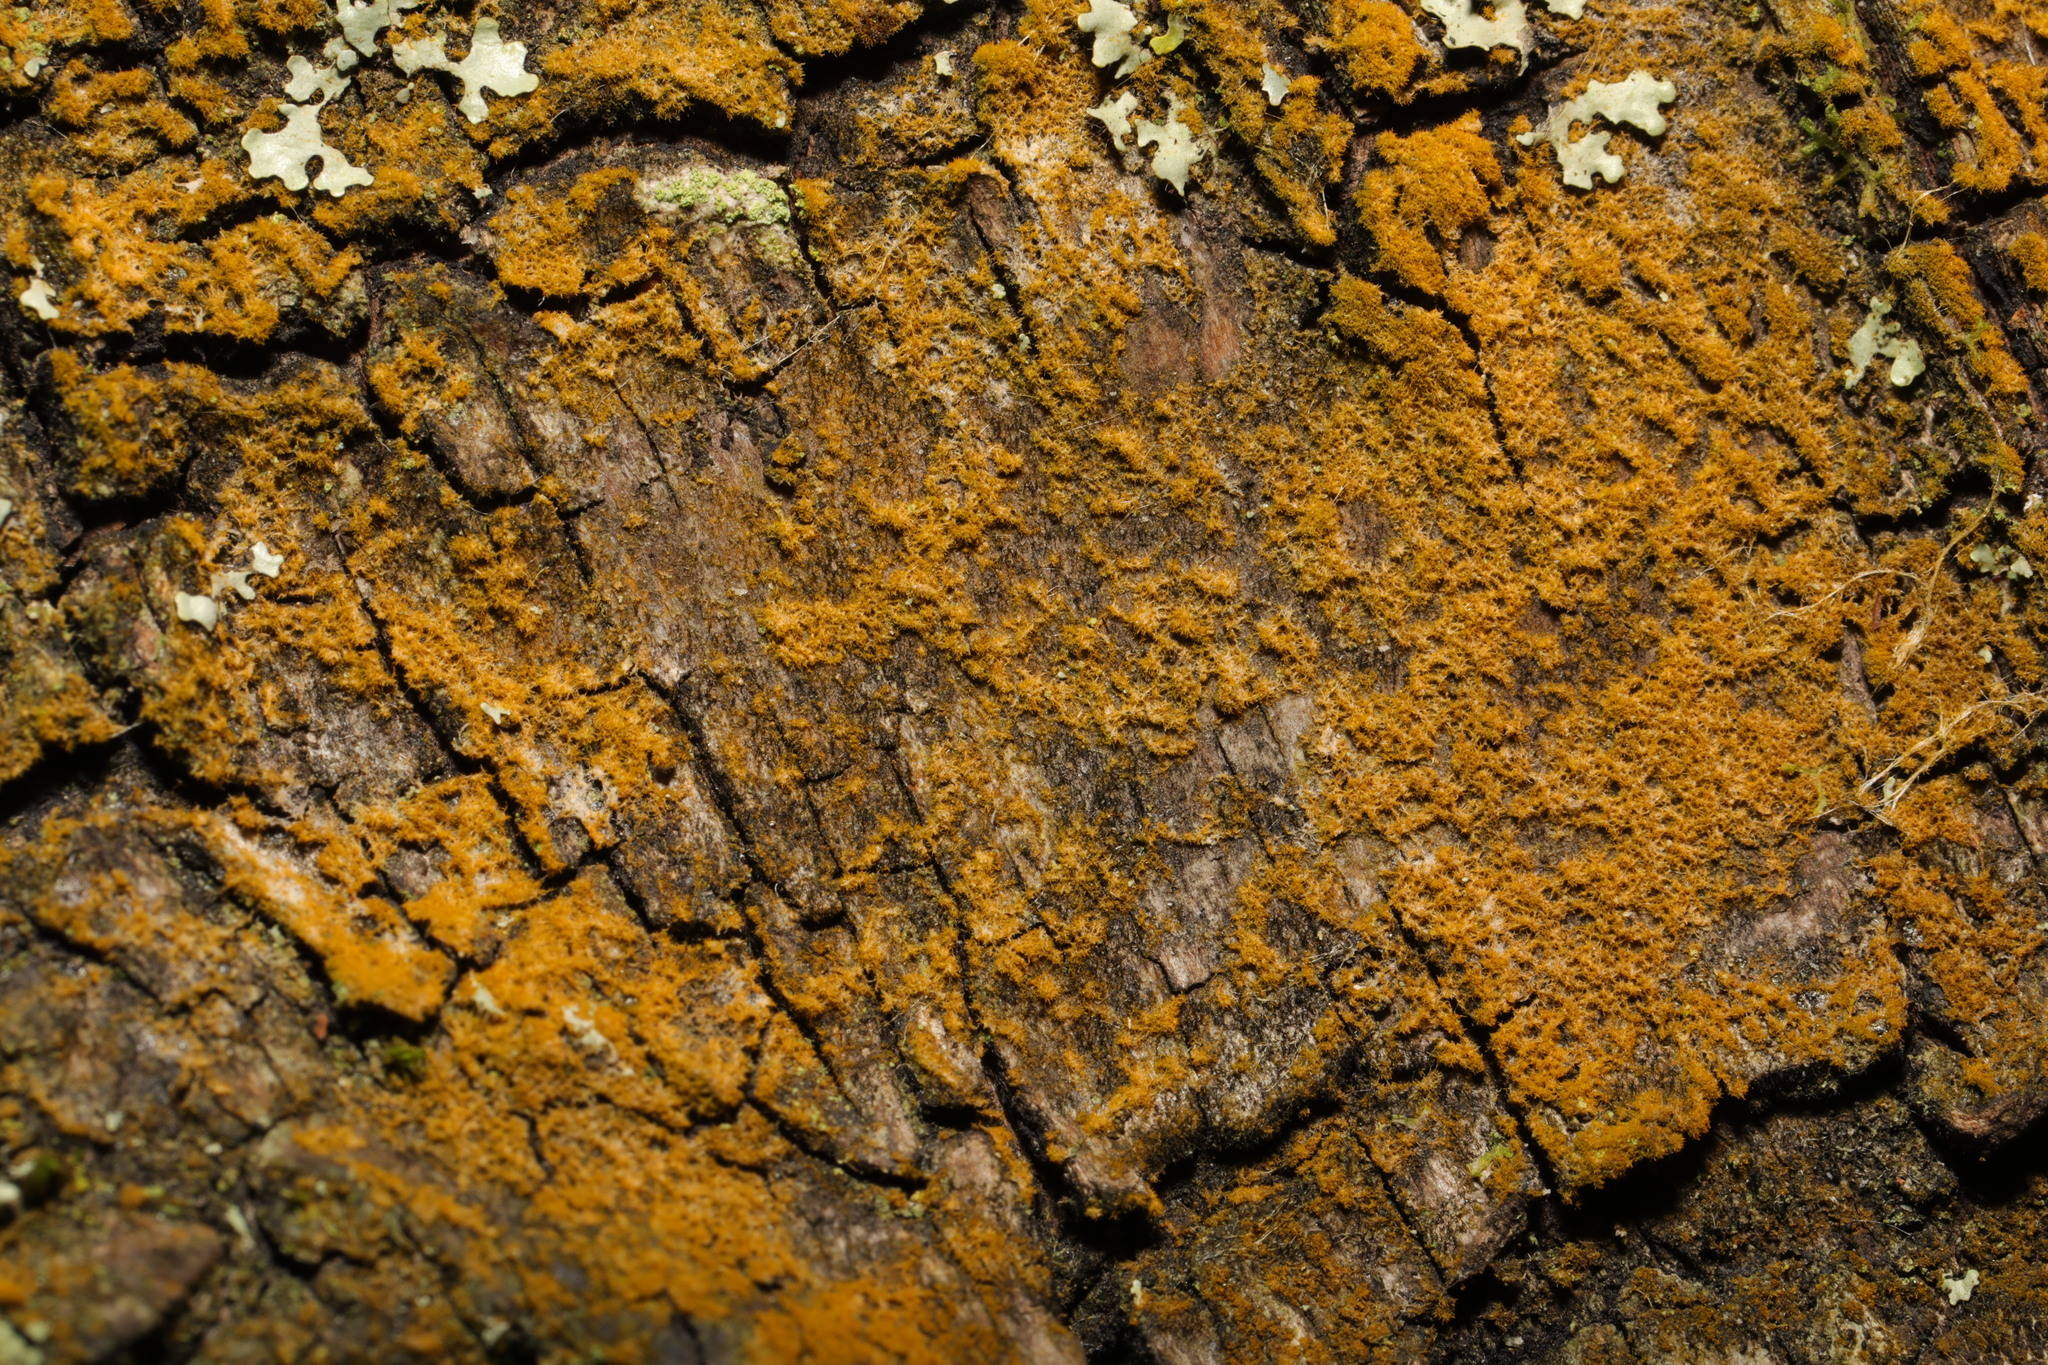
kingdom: Plantae
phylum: Chlorophyta
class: Ulvophyceae
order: Trentepohliales
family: Trentepohliaceae
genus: Trentepohlia
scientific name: Trentepohlia
